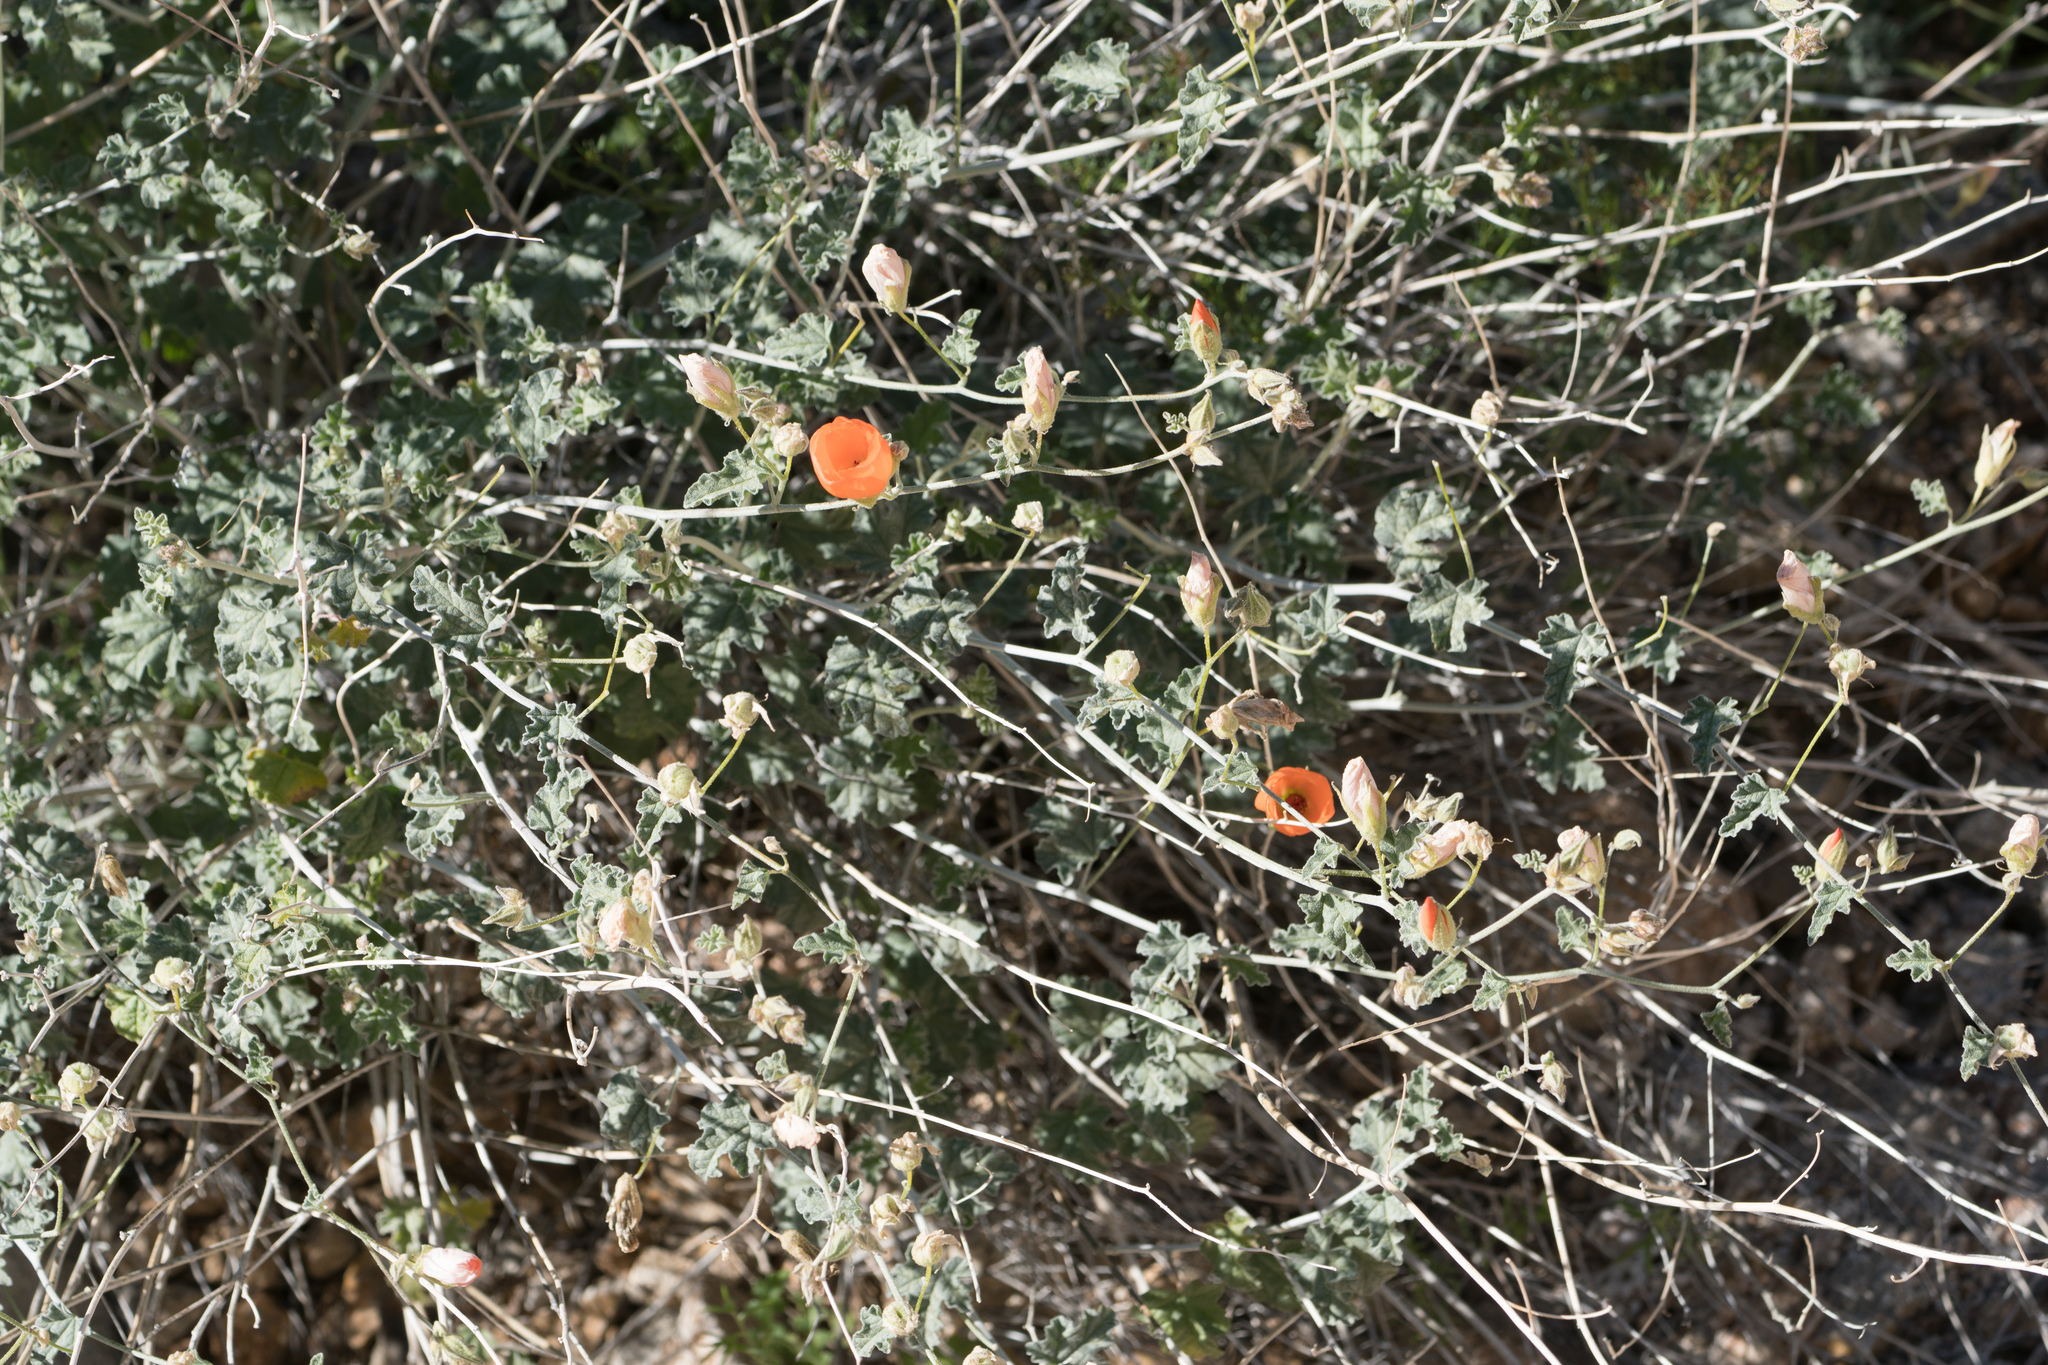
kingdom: Plantae
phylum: Tracheophyta
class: Magnoliopsida
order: Malvales
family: Malvaceae
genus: Sphaeralcea
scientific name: Sphaeralcea ambigua
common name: Apricot globe-mallow
